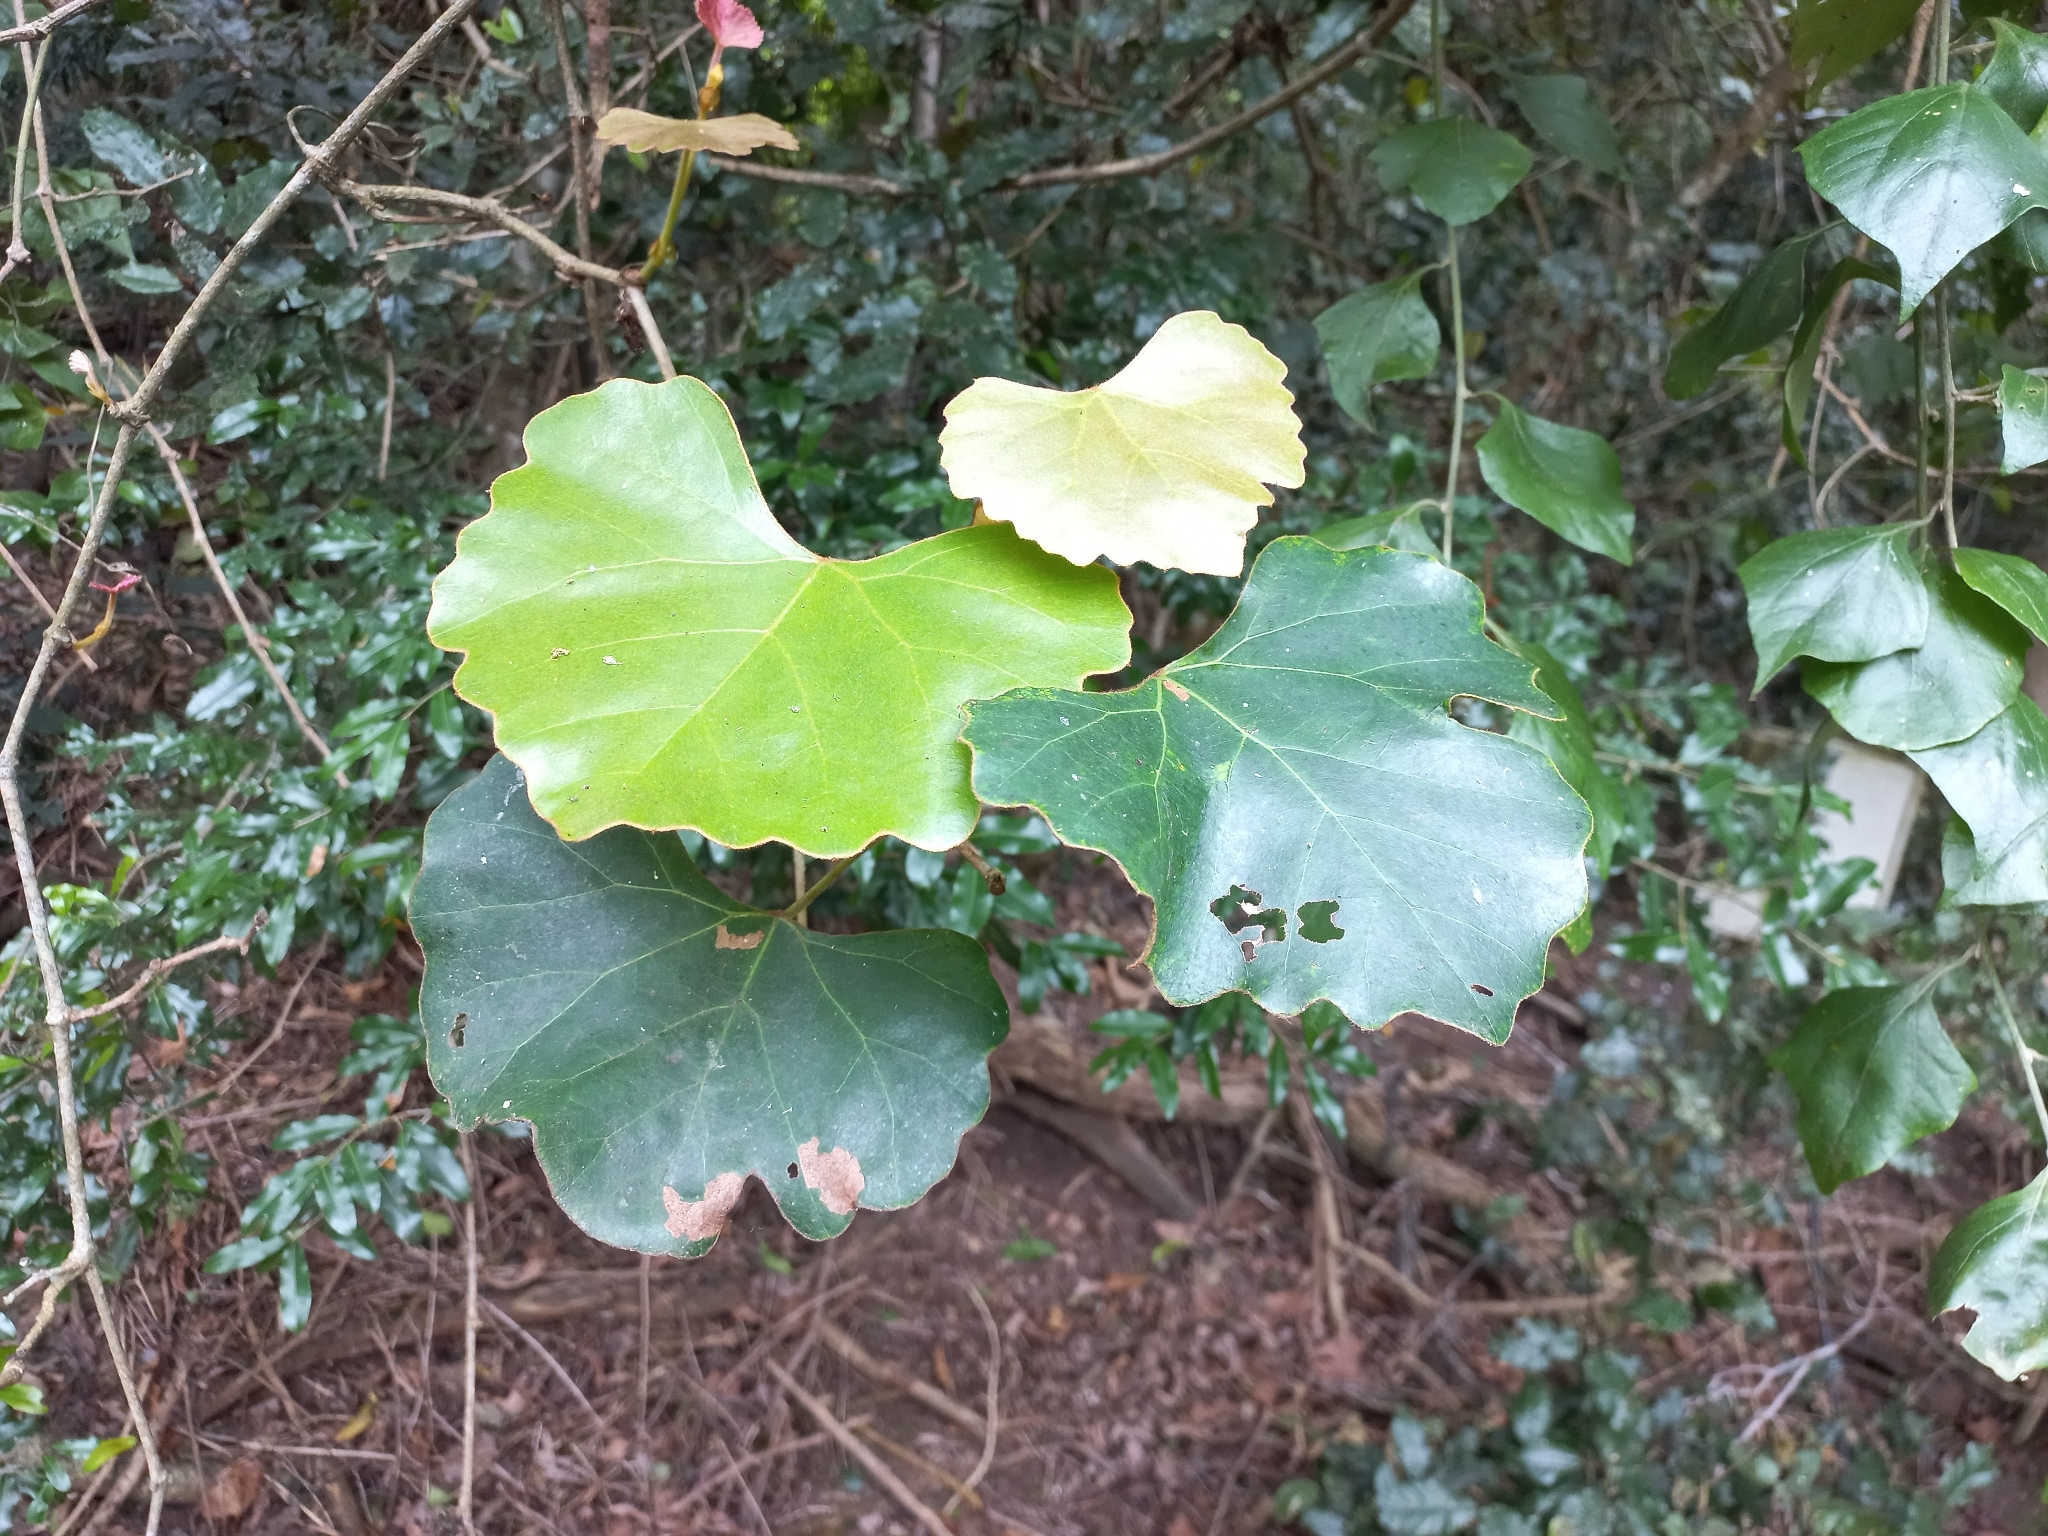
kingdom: Plantae
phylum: Tracheophyta
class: Magnoliopsida
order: Vitales
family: Vitaceae
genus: Rhoicissus
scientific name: Rhoicissus tomentosa
